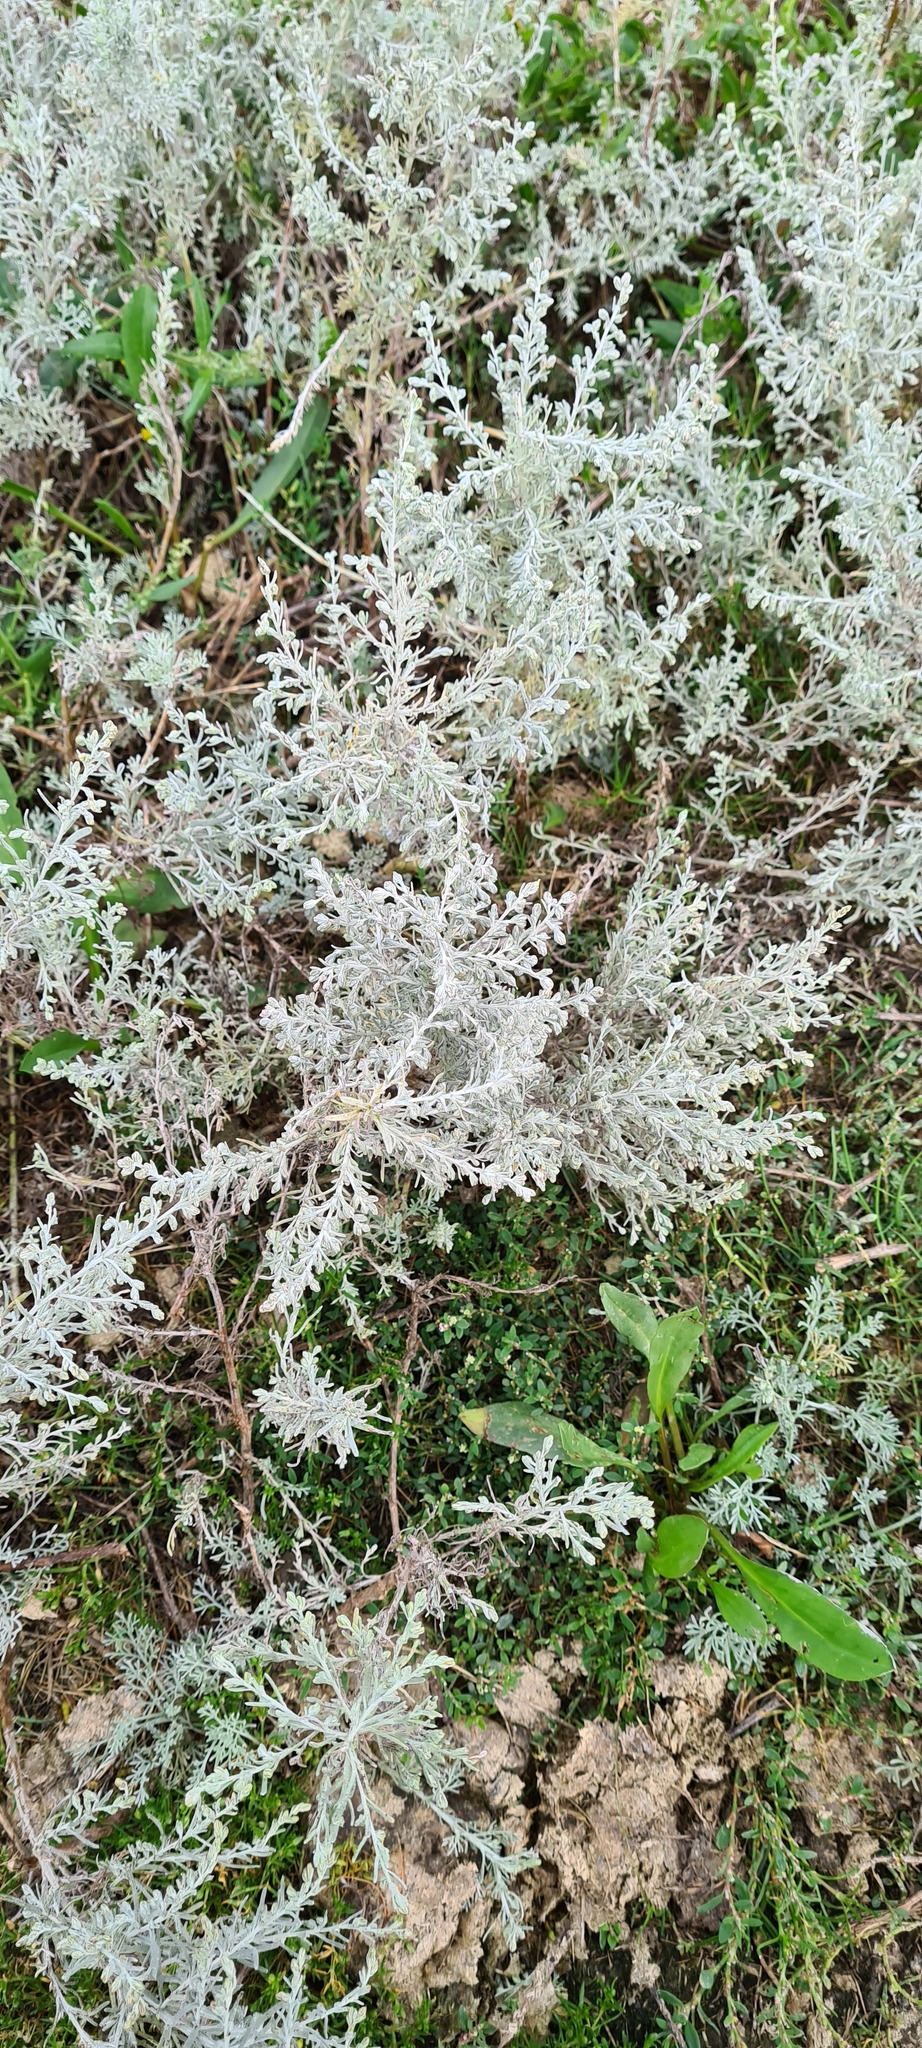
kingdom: Plantae
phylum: Tracheophyta
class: Magnoliopsida
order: Asterales
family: Asteraceae
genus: Artemisia
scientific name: Artemisia maritima
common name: Wormseed
